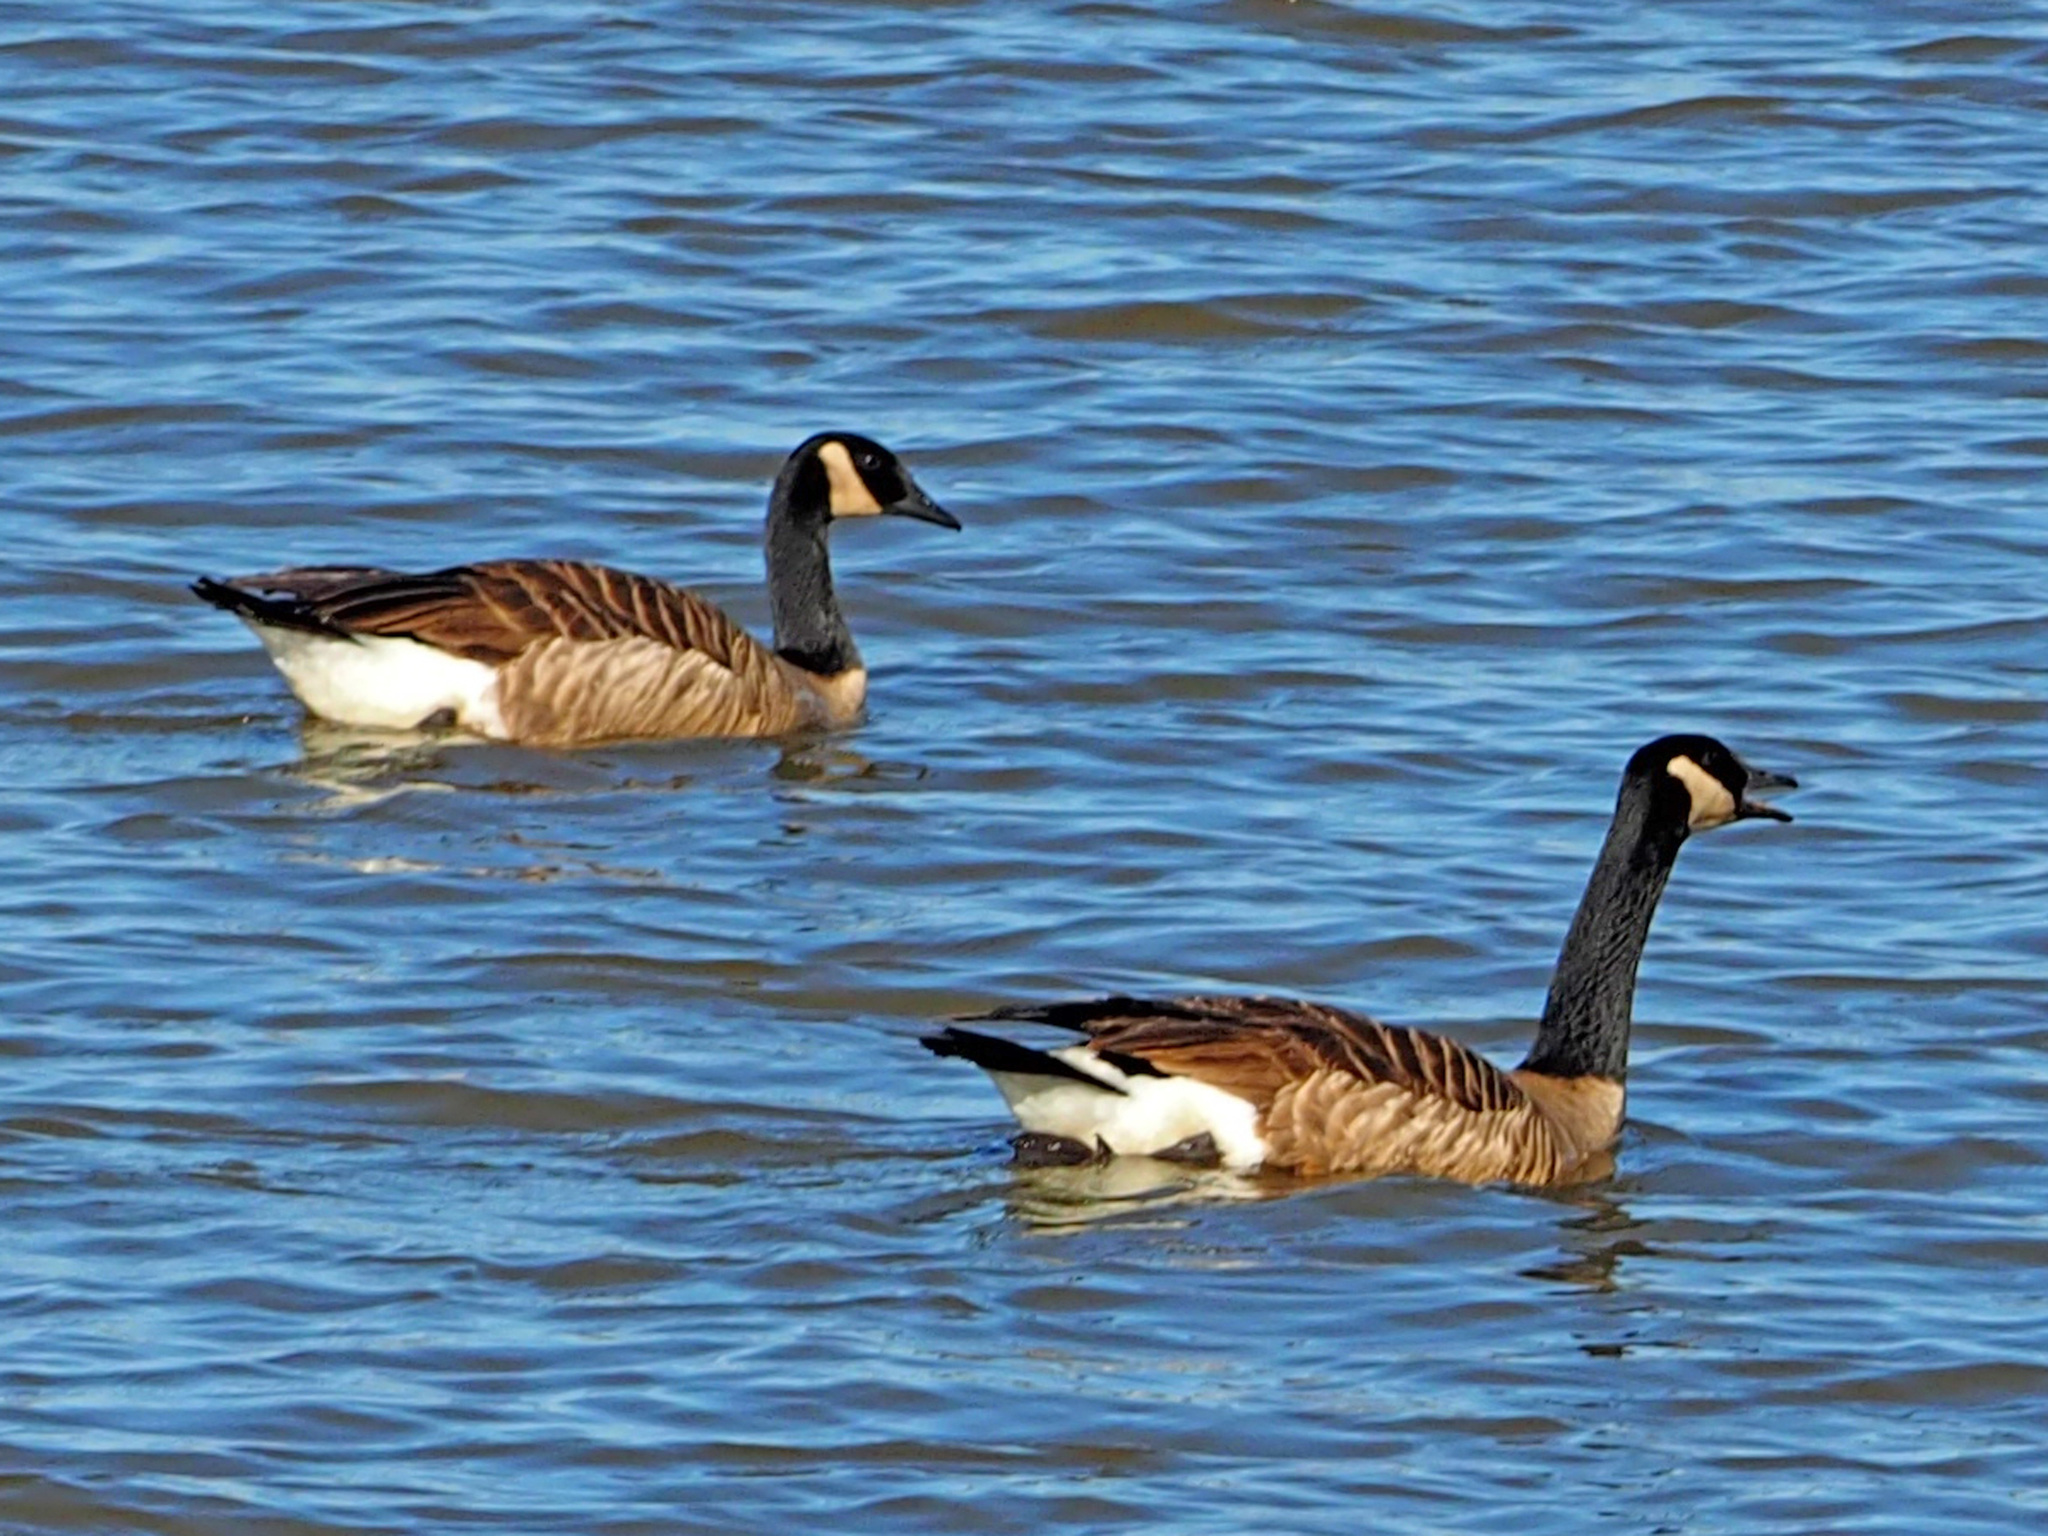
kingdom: Animalia
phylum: Chordata
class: Aves
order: Anseriformes
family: Anatidae
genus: Branta
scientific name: Branta canadensis
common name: Canada goose
